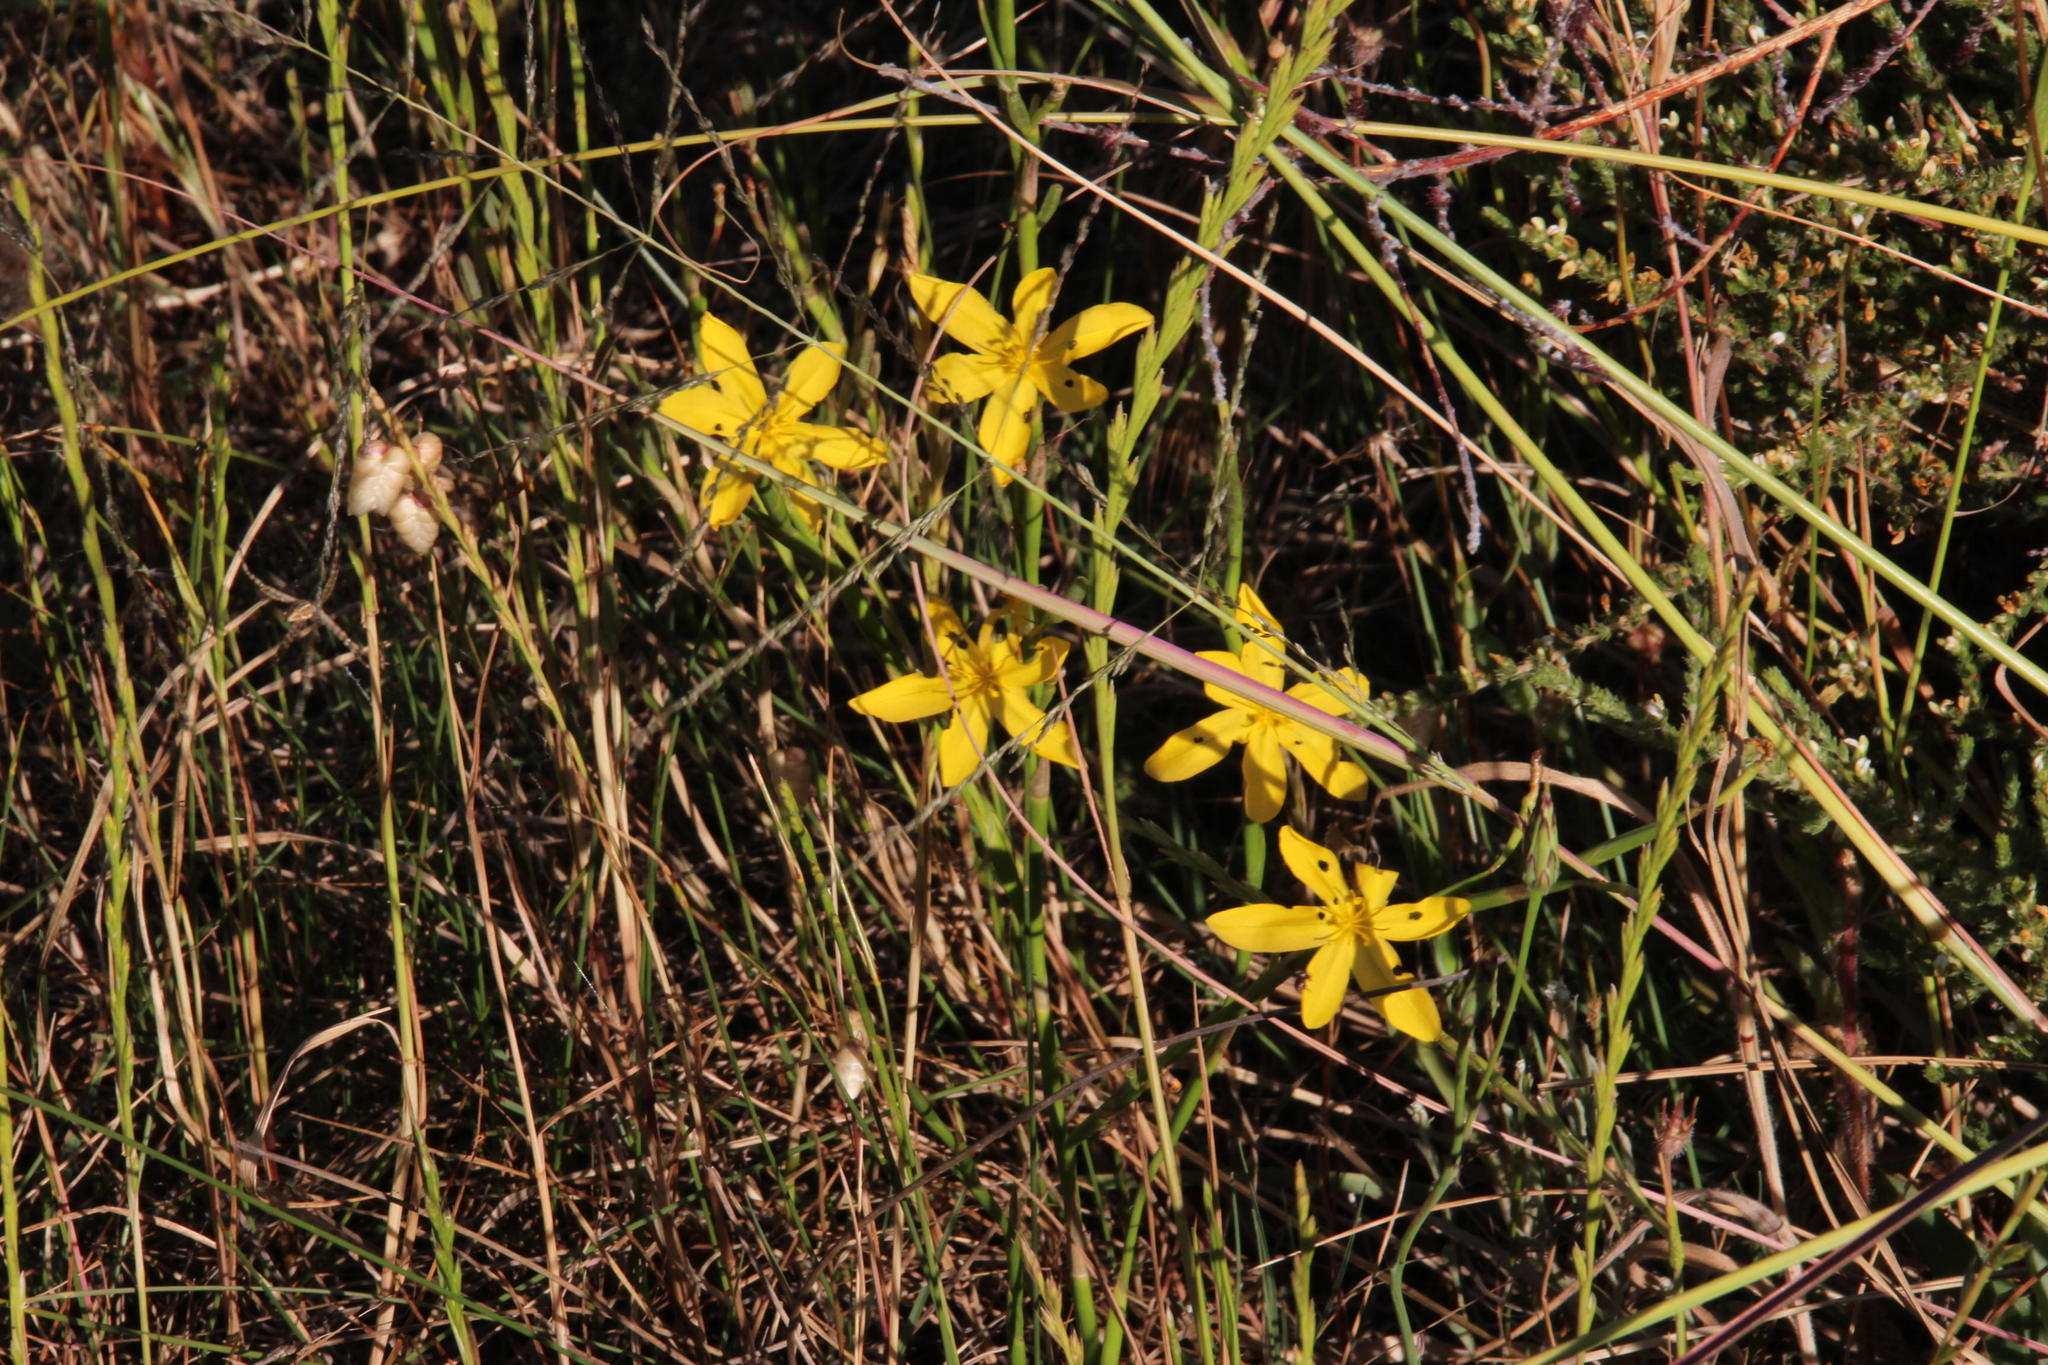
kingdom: Plantae
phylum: Tracheophyta
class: Liliopsida
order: Asparagales
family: Iridaceae
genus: Moraea
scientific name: Moraea lewisiae
